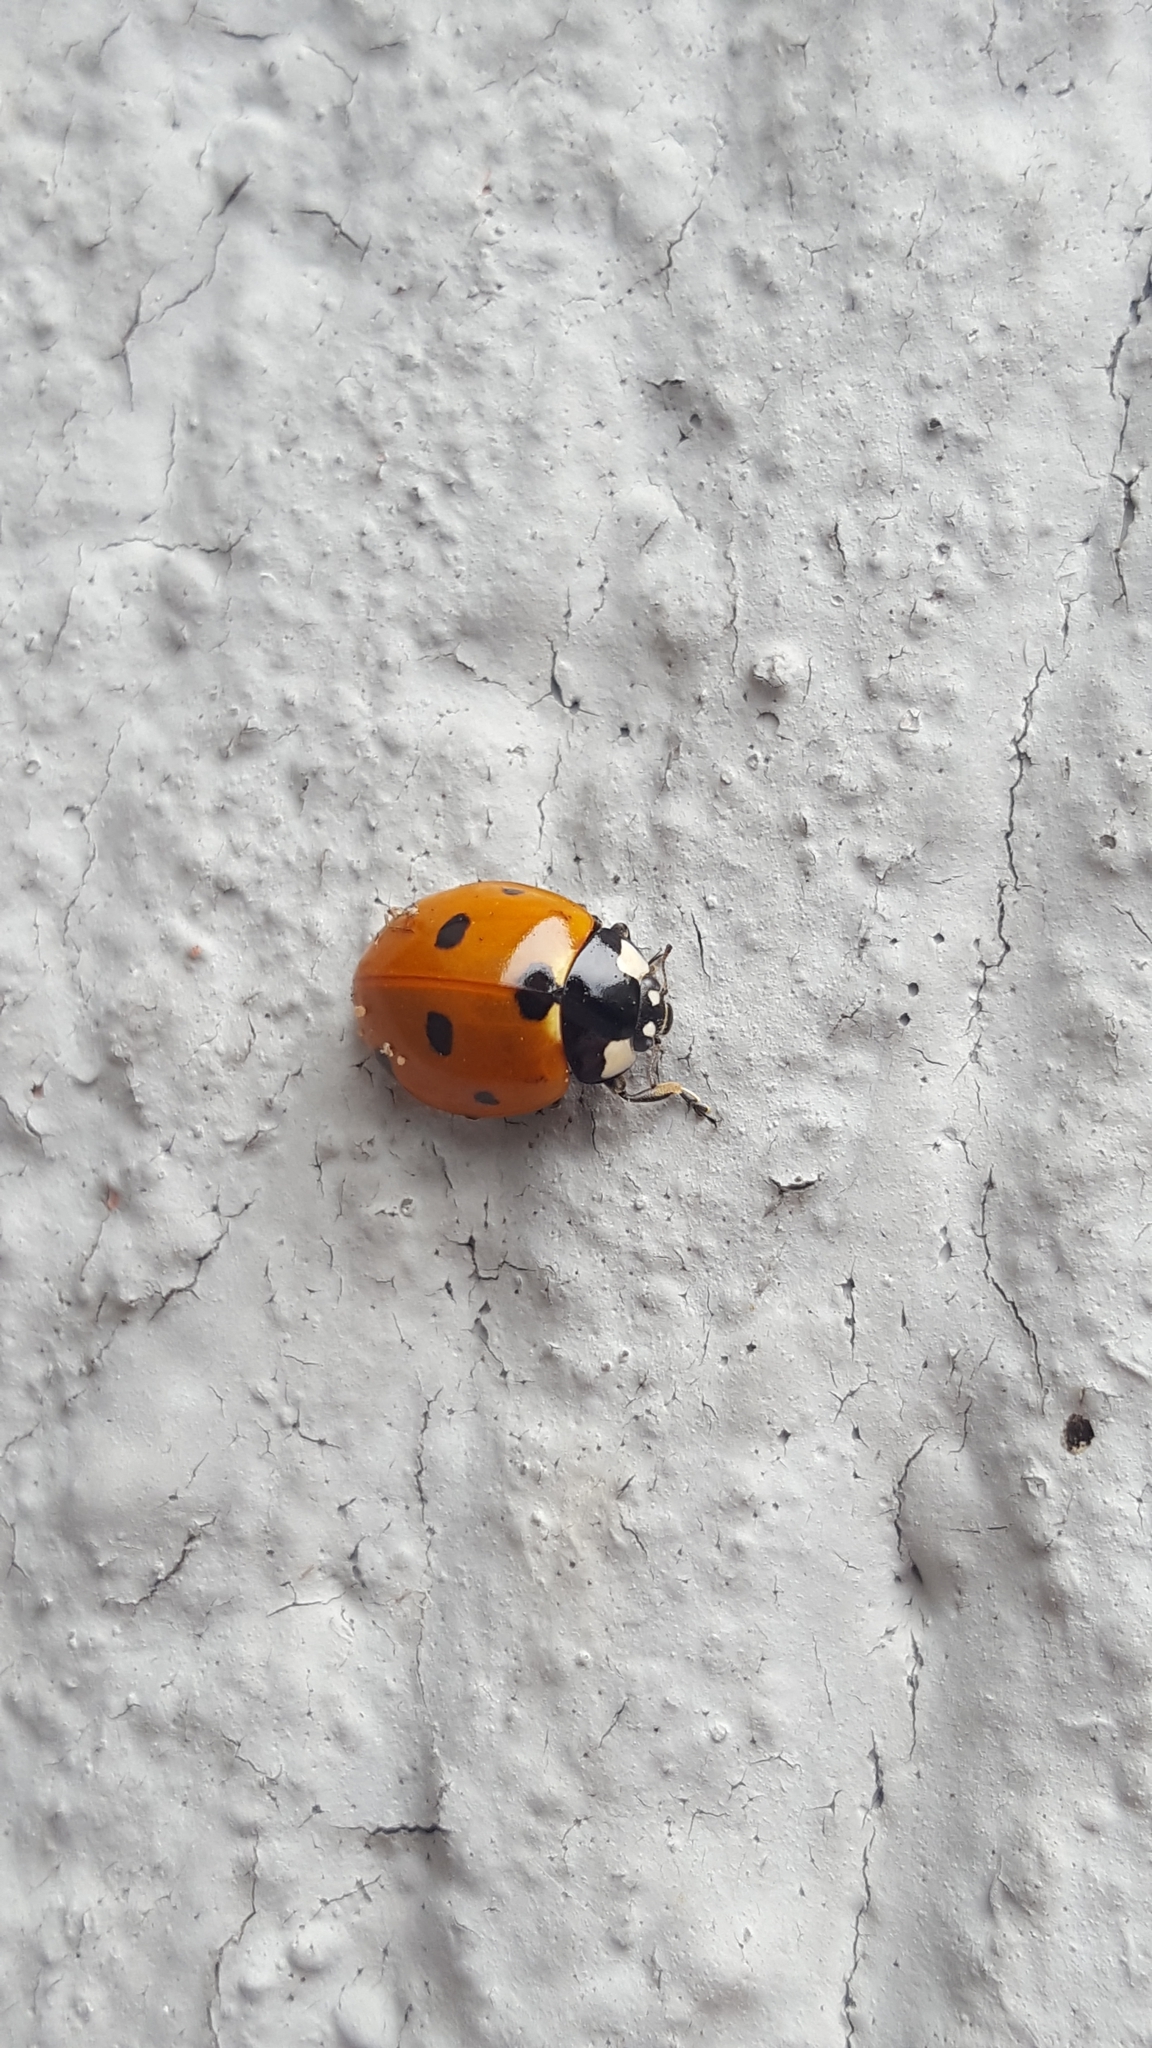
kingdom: Animalia
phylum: Arthropoda
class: Insecta
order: Coleoptera
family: Coccinellidae
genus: Coccinella
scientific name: Coccinella septempunctata
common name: Sevenspotted lady beetle
